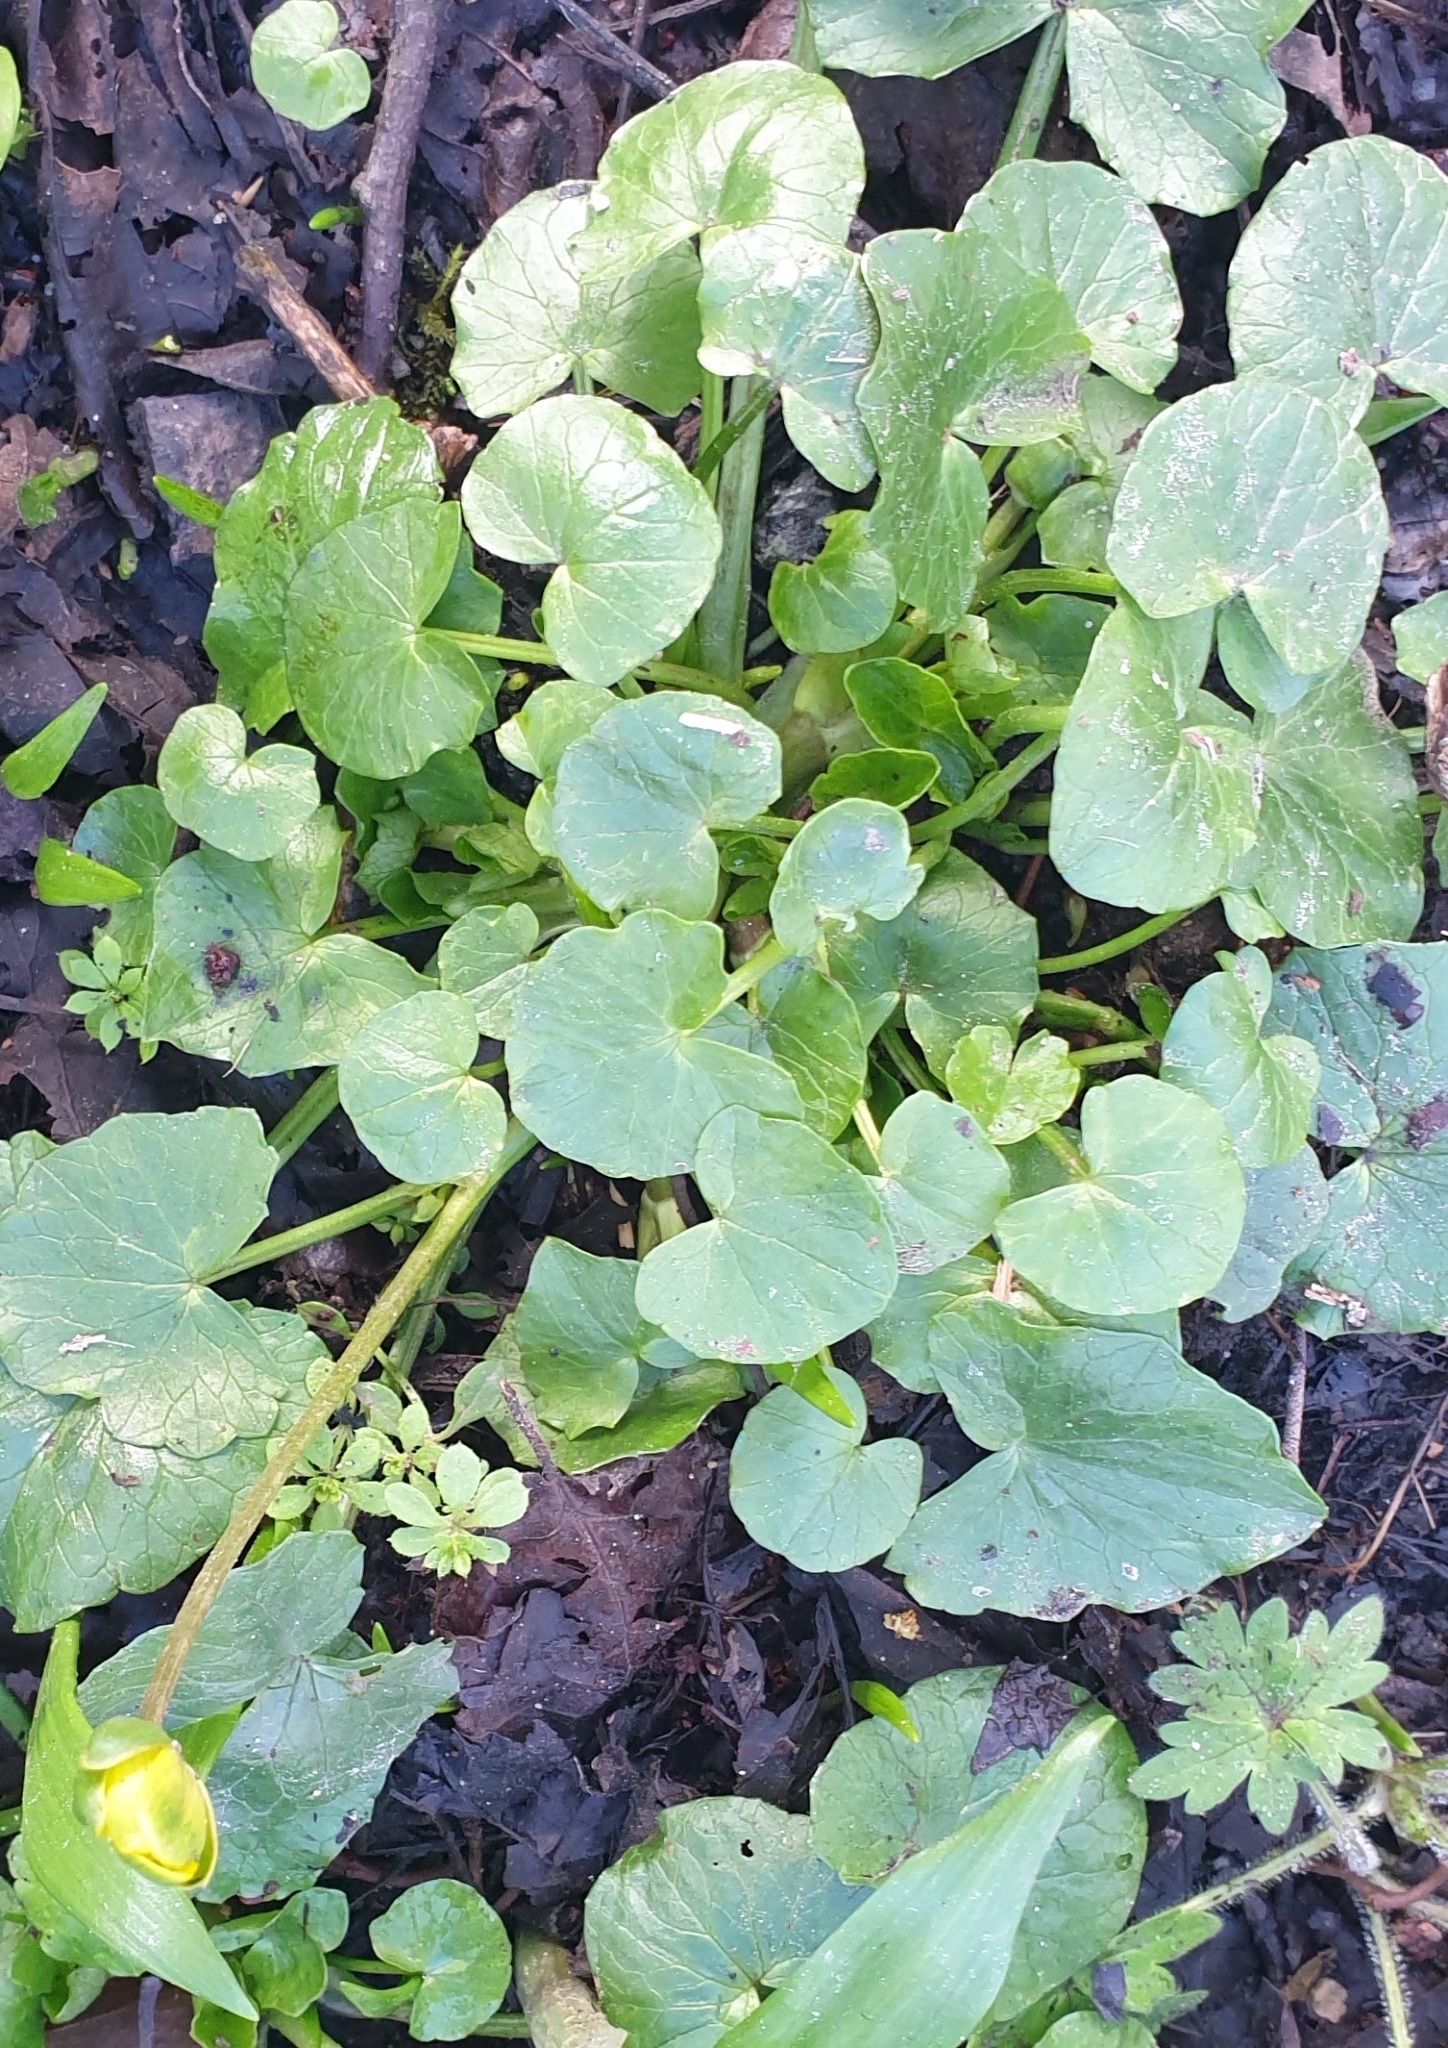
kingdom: Plantae
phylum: Tracheophyta
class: Magnoliopsida
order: Ranunculales
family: Ranunculaceae
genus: Ficaria
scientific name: Ficaria verna
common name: Lesser celandine
